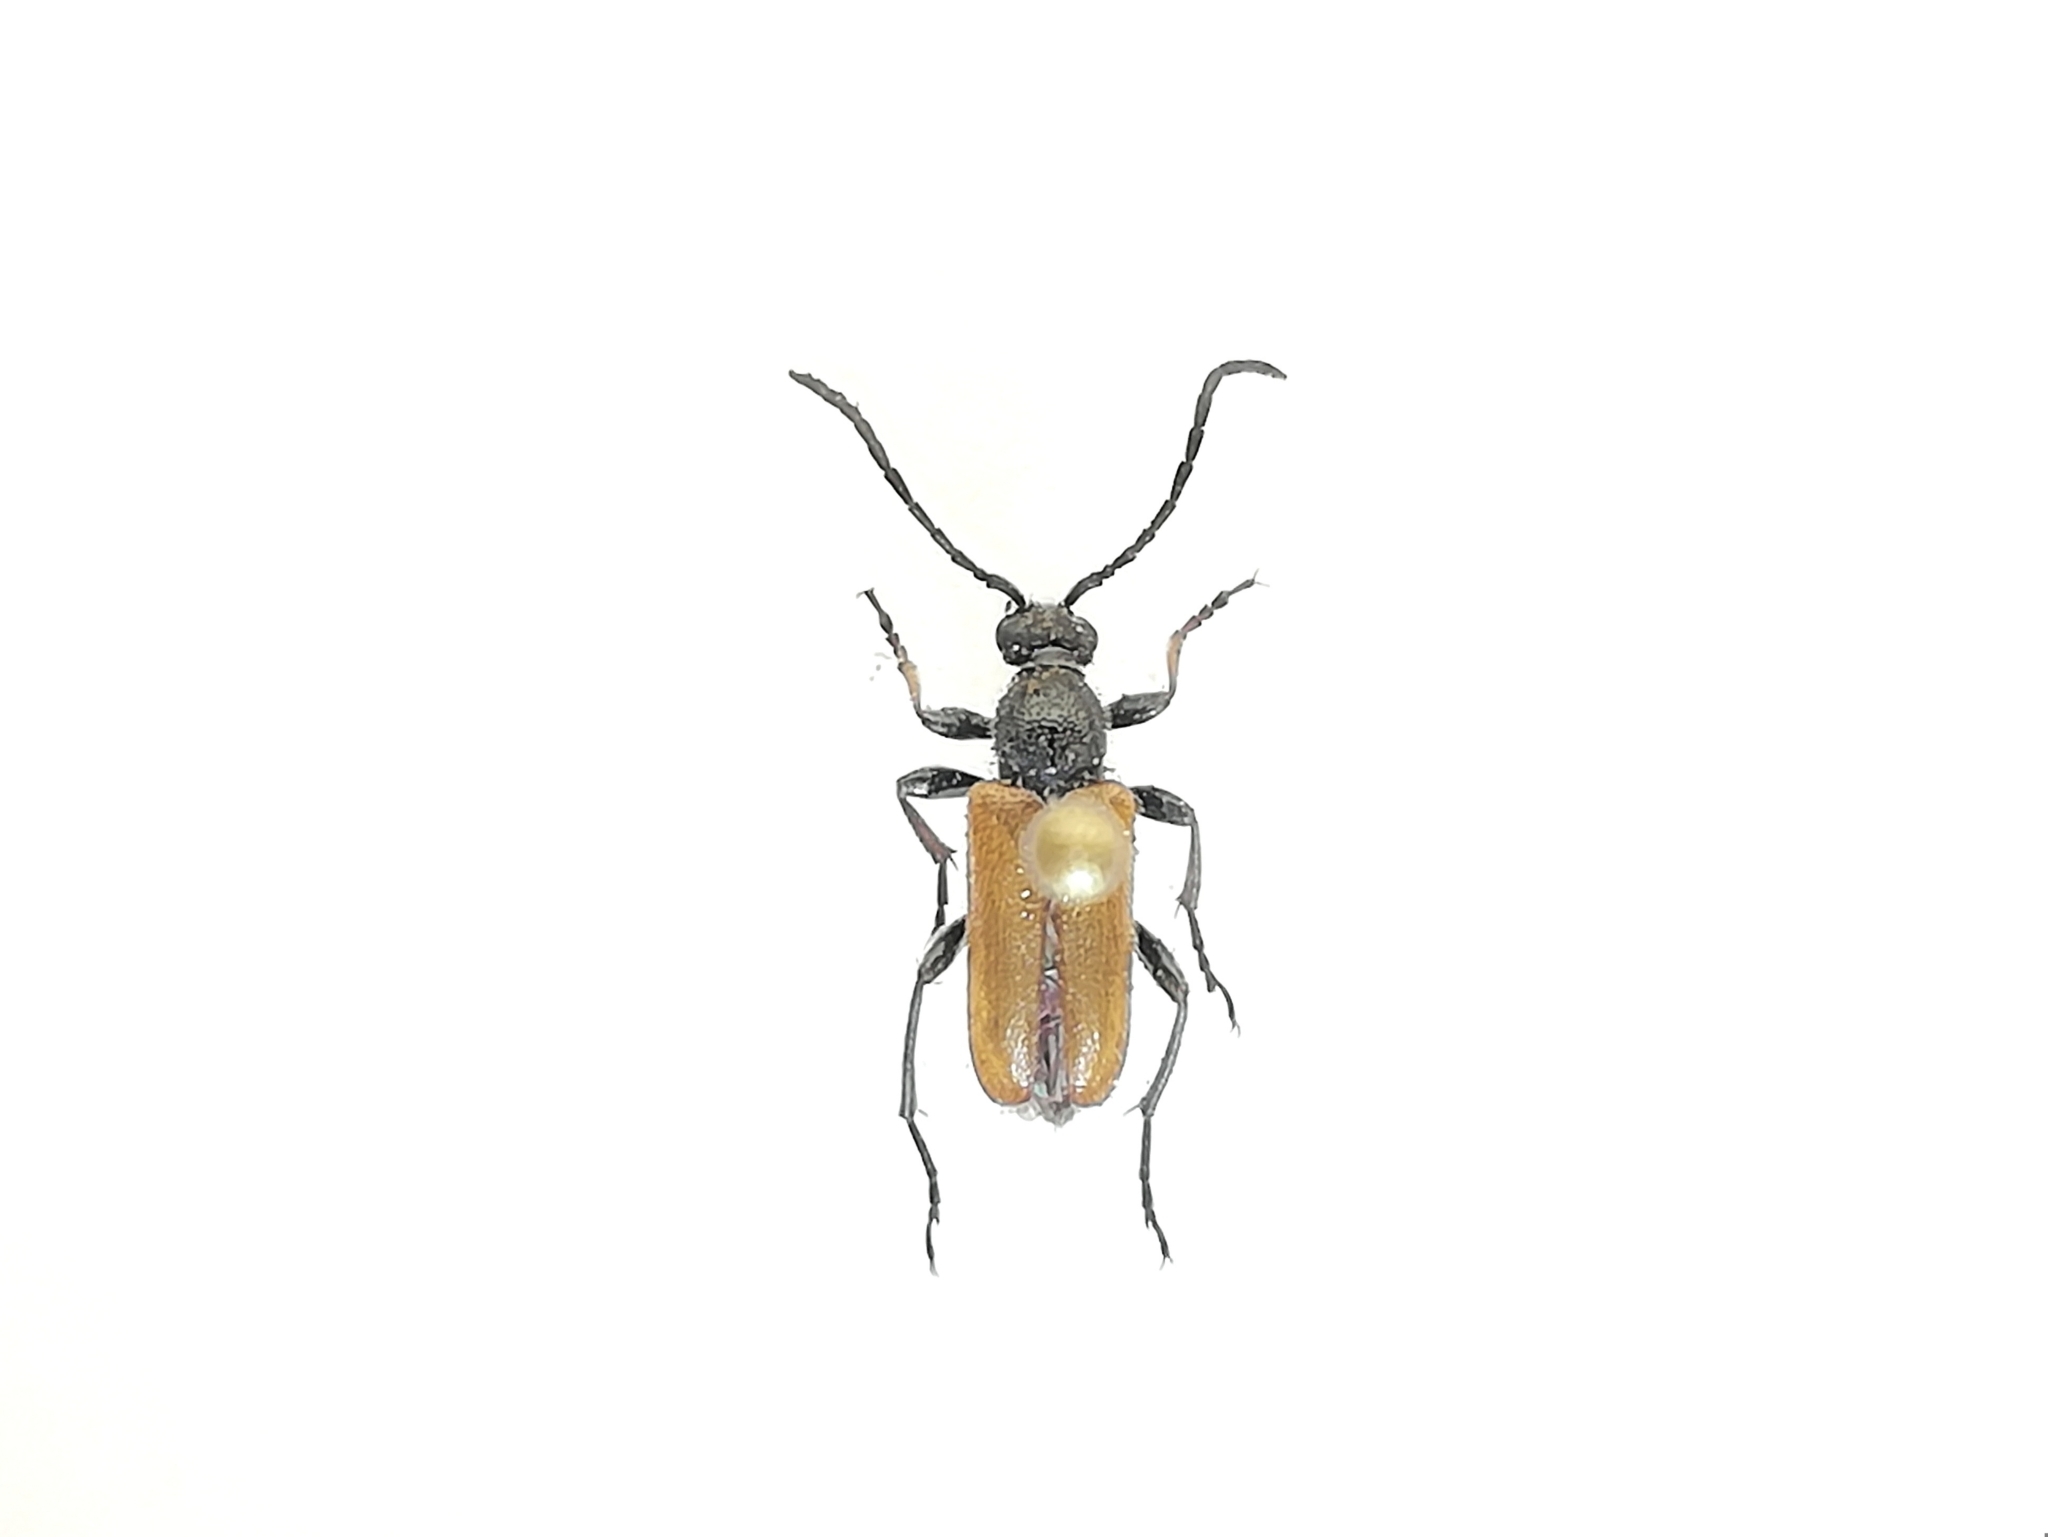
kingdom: Animalia
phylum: Arthropoda
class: Insecta
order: Coleoptera
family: Cerambycidae
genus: Pseudovadonia
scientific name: Pseudovadonia livida
